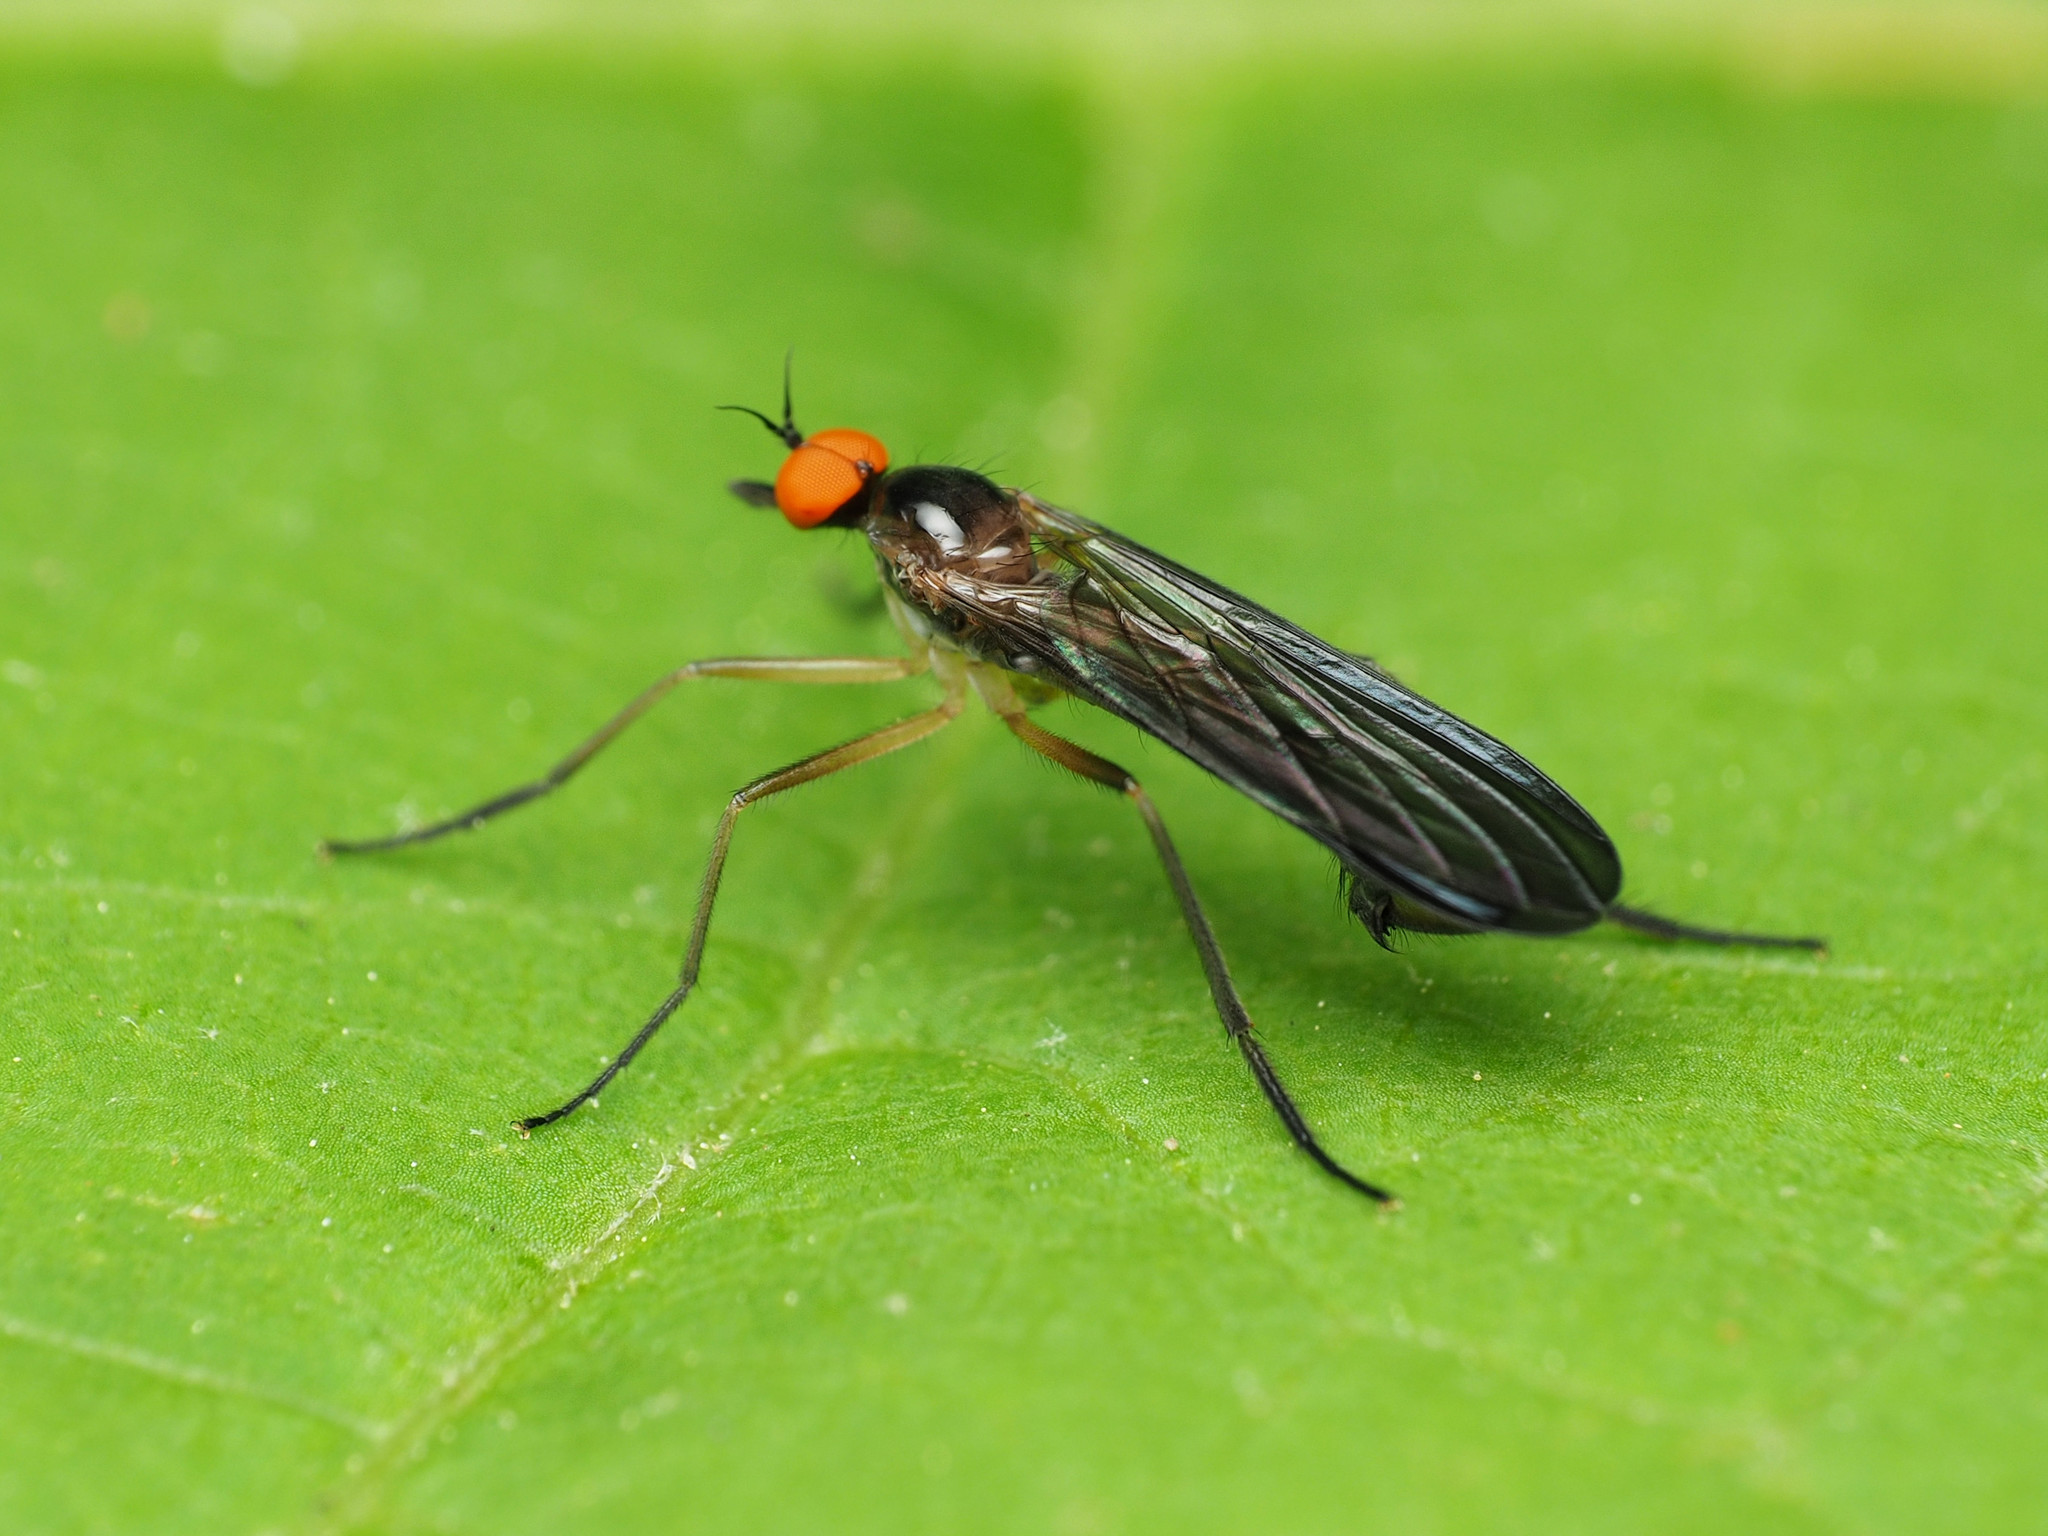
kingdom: Animalia
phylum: Arthropoda
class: Insecta
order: Diptera
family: Empididae
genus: Rhamphomyia
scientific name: Rhamphomyia longicauda
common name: Long-tailed dance fly
